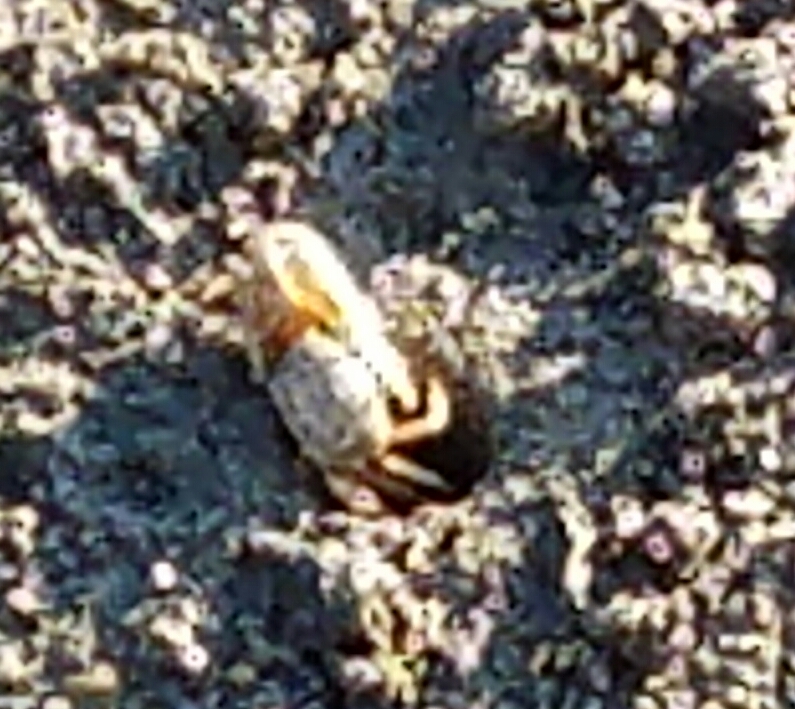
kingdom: Animalia
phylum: Arthropoda
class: Malacostraca
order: Decapoda
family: Ocypodidae
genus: Leptuca
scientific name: Leptuca crenulata
